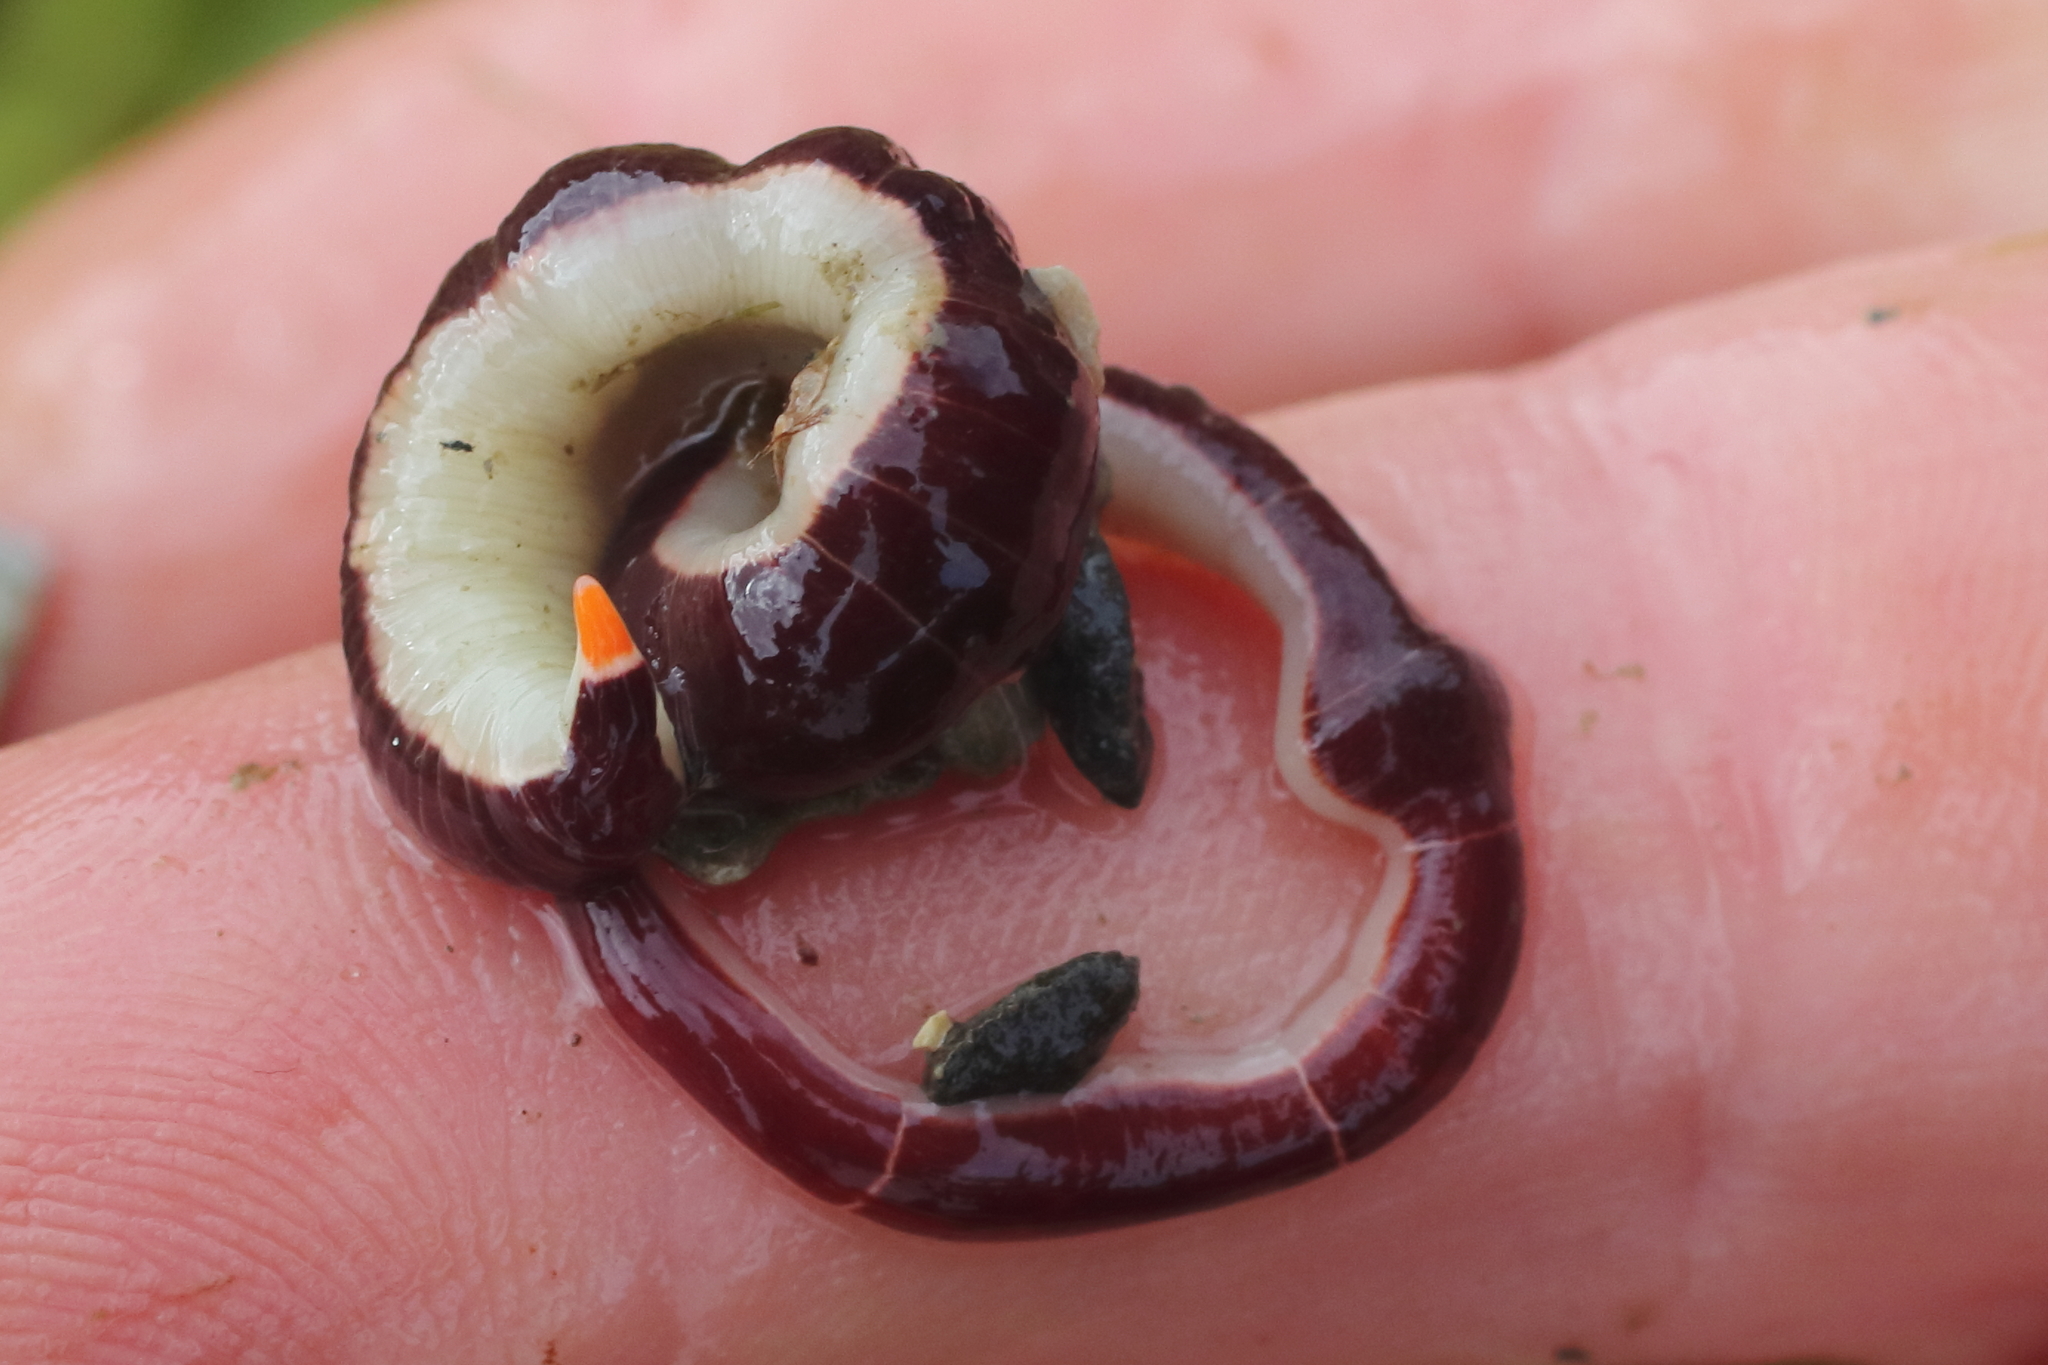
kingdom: Animalia
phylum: Nemertea
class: Pilidiophora
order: Heteronemertea
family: Lineidae
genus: Micrura
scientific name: Micrura verrilli
